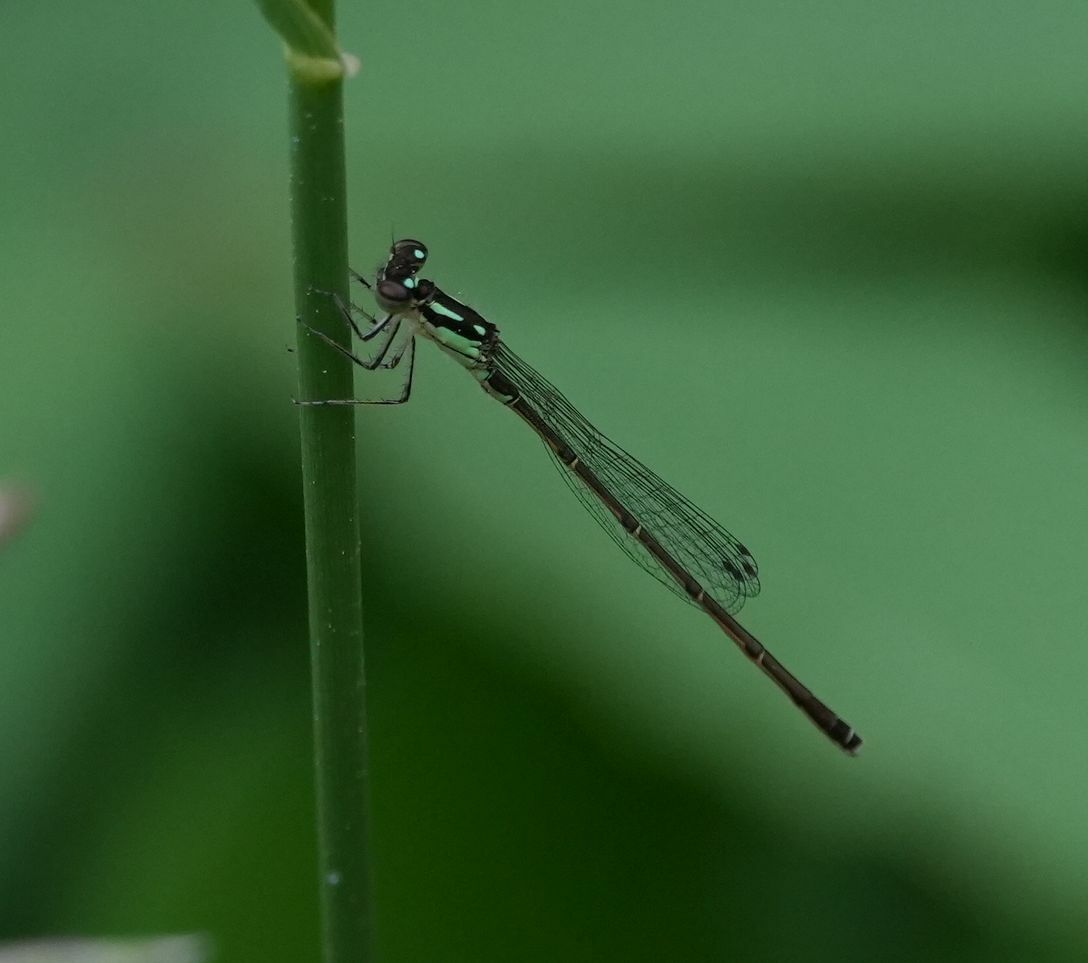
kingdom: Animalia
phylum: Arthropoda
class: Insecta
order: Odonata
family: Coenagrionidae
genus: Ischnura
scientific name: Ischnura posita
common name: Fragile forktail
